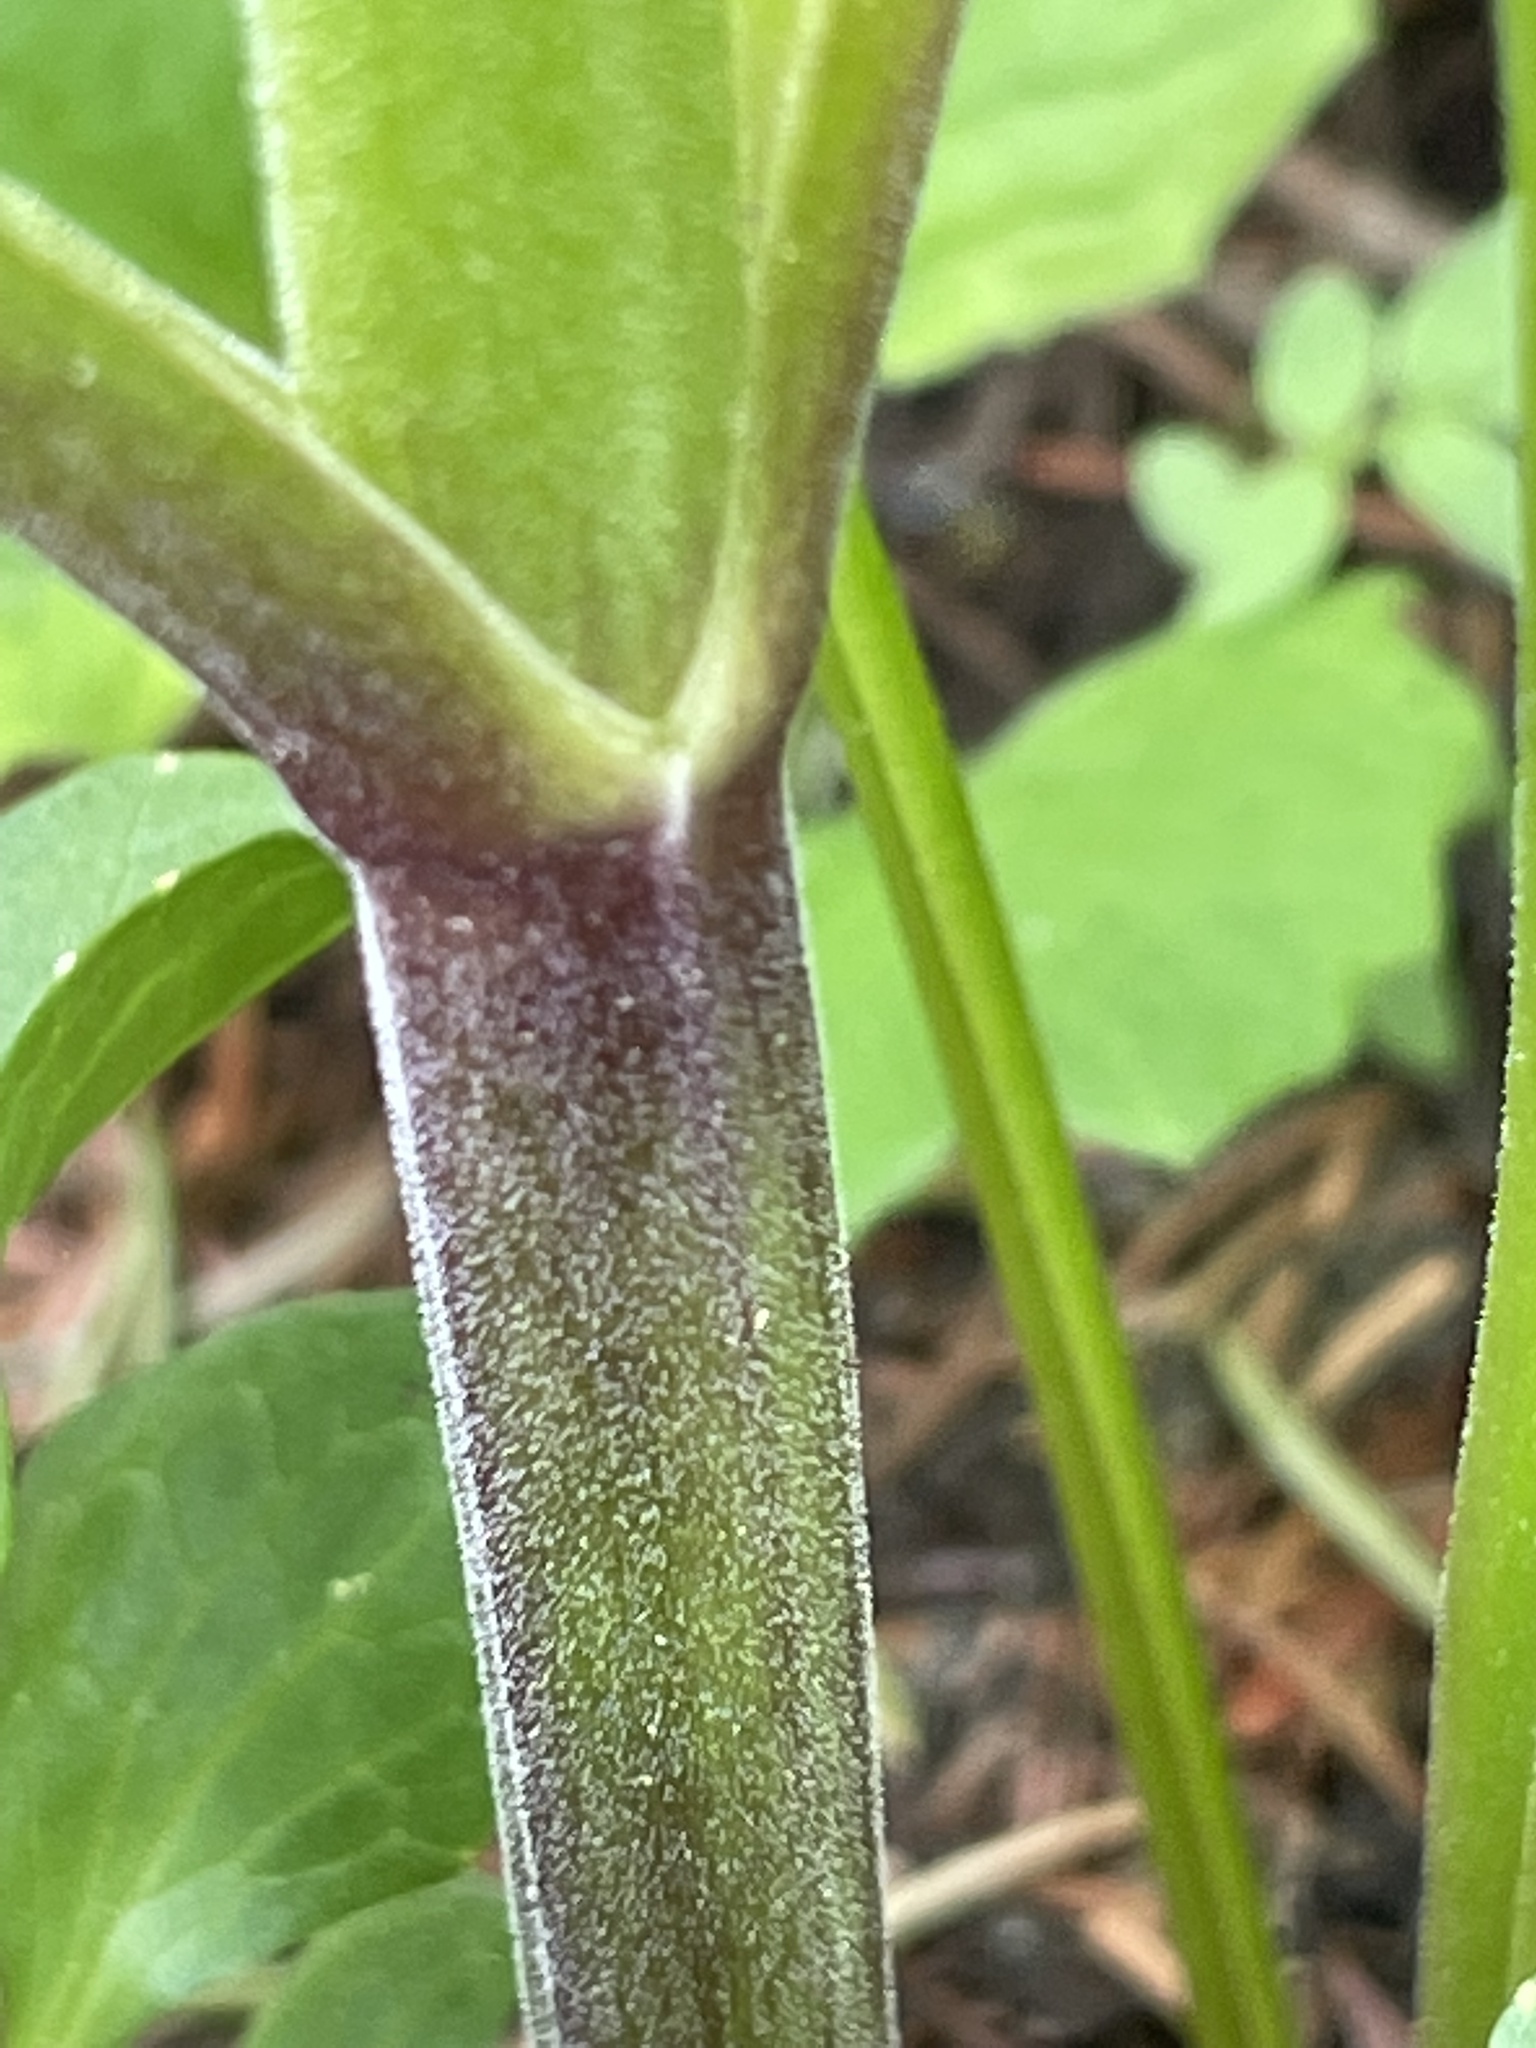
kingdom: Plantae
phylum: Tracheophyta
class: Magnoliopsida
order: Dipsacales
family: Caprifoliaceae
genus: Valeriana
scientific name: Valeriana sitchensis
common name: Pacific valerian
